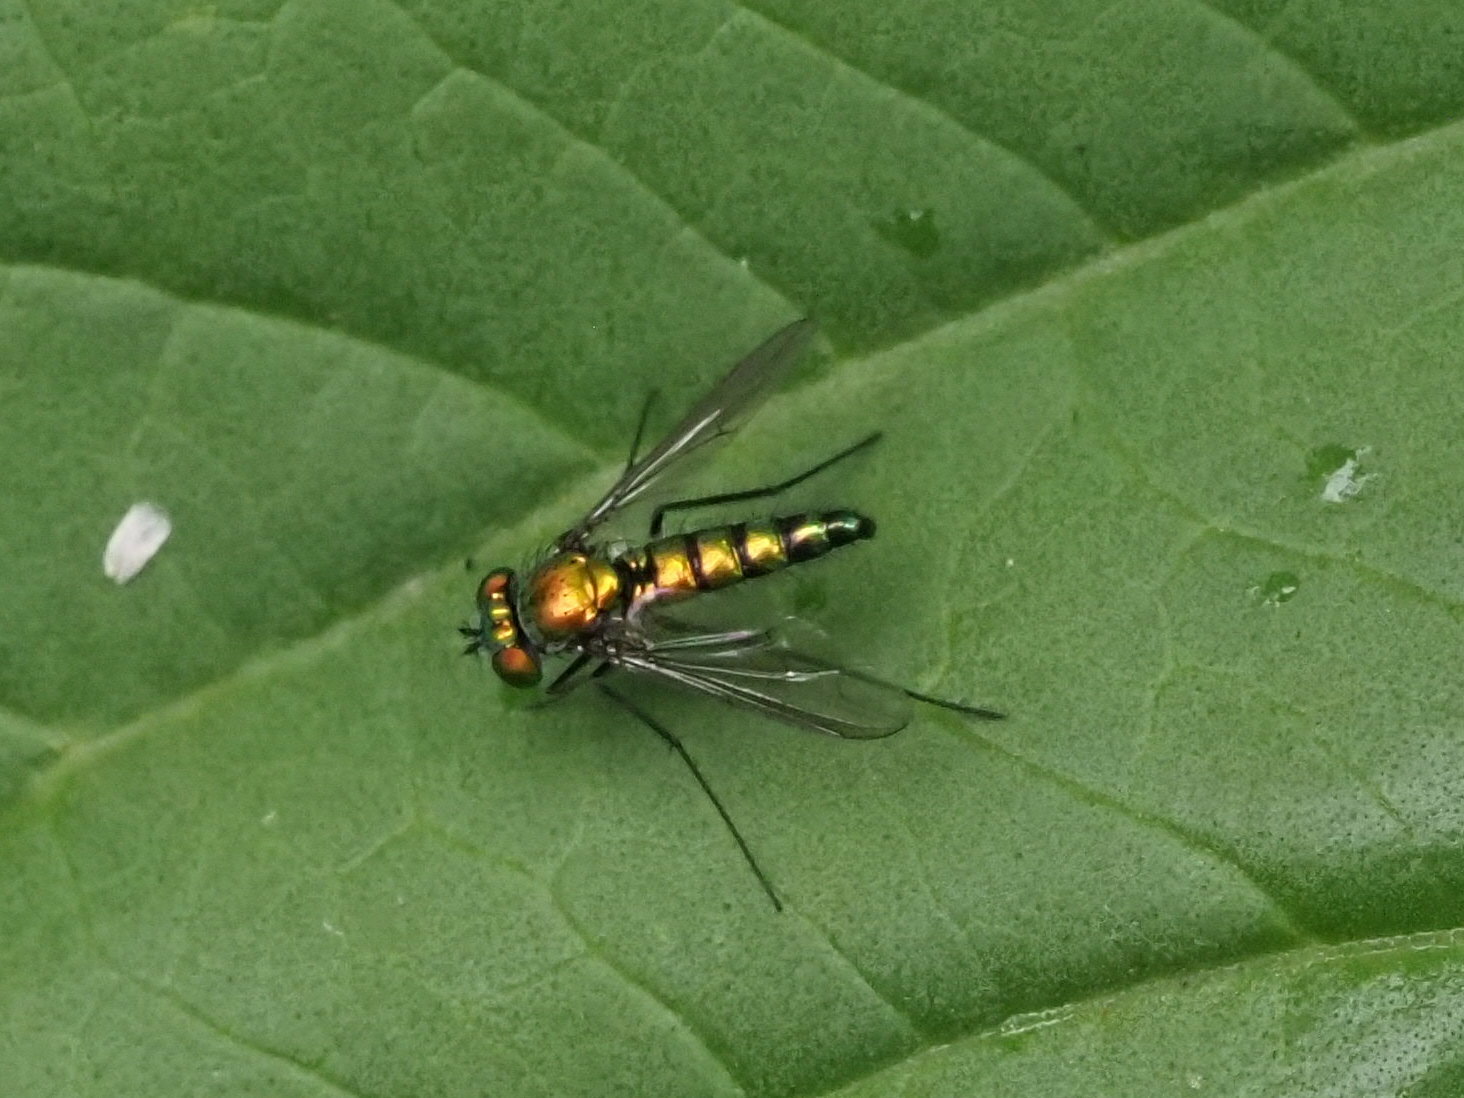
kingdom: Animalia
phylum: Arthropoda
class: Insecta
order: Diptera
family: Dolichopodidae
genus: Condylostylus
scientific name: Condylostylus longicornis
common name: Long-legged fly
